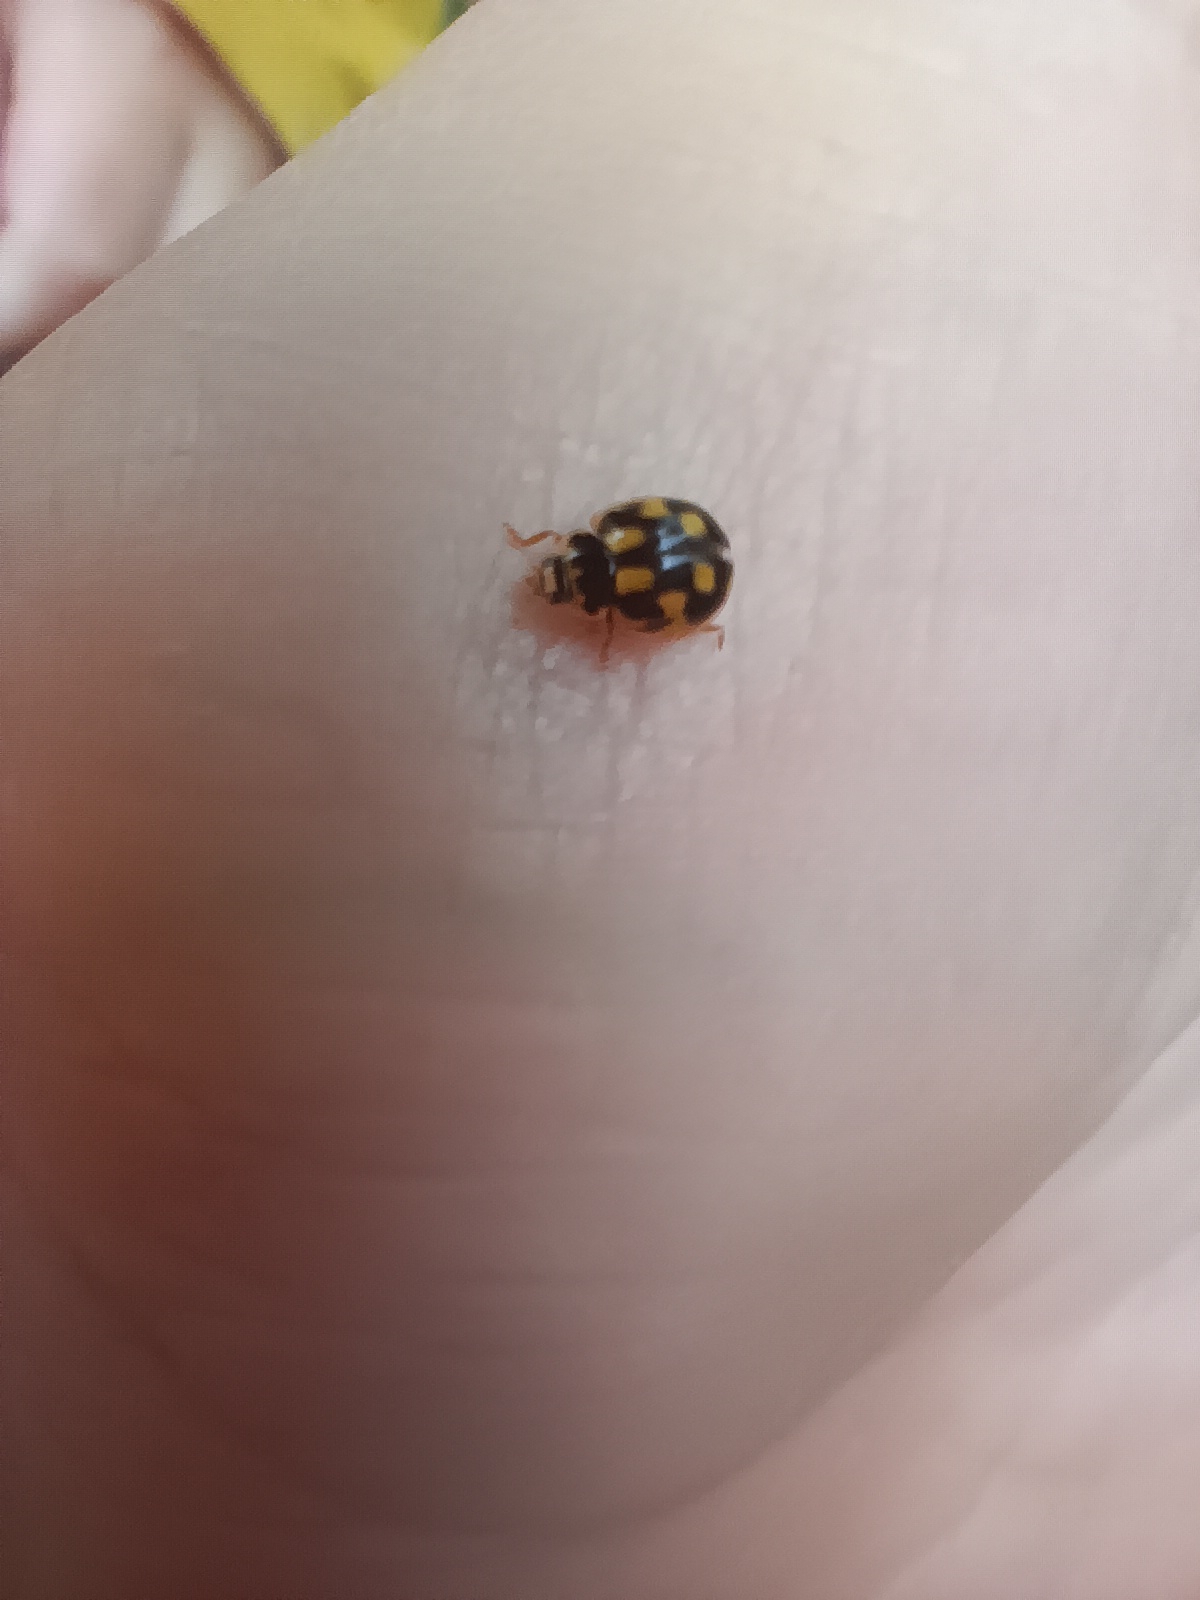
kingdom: Animalia
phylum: Arthropoda
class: Insecta
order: Coleoptera
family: Coccinellidae
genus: Propylaea
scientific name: Propylaea quatuordecimpunctata
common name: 14-spotted ladybird beetle
